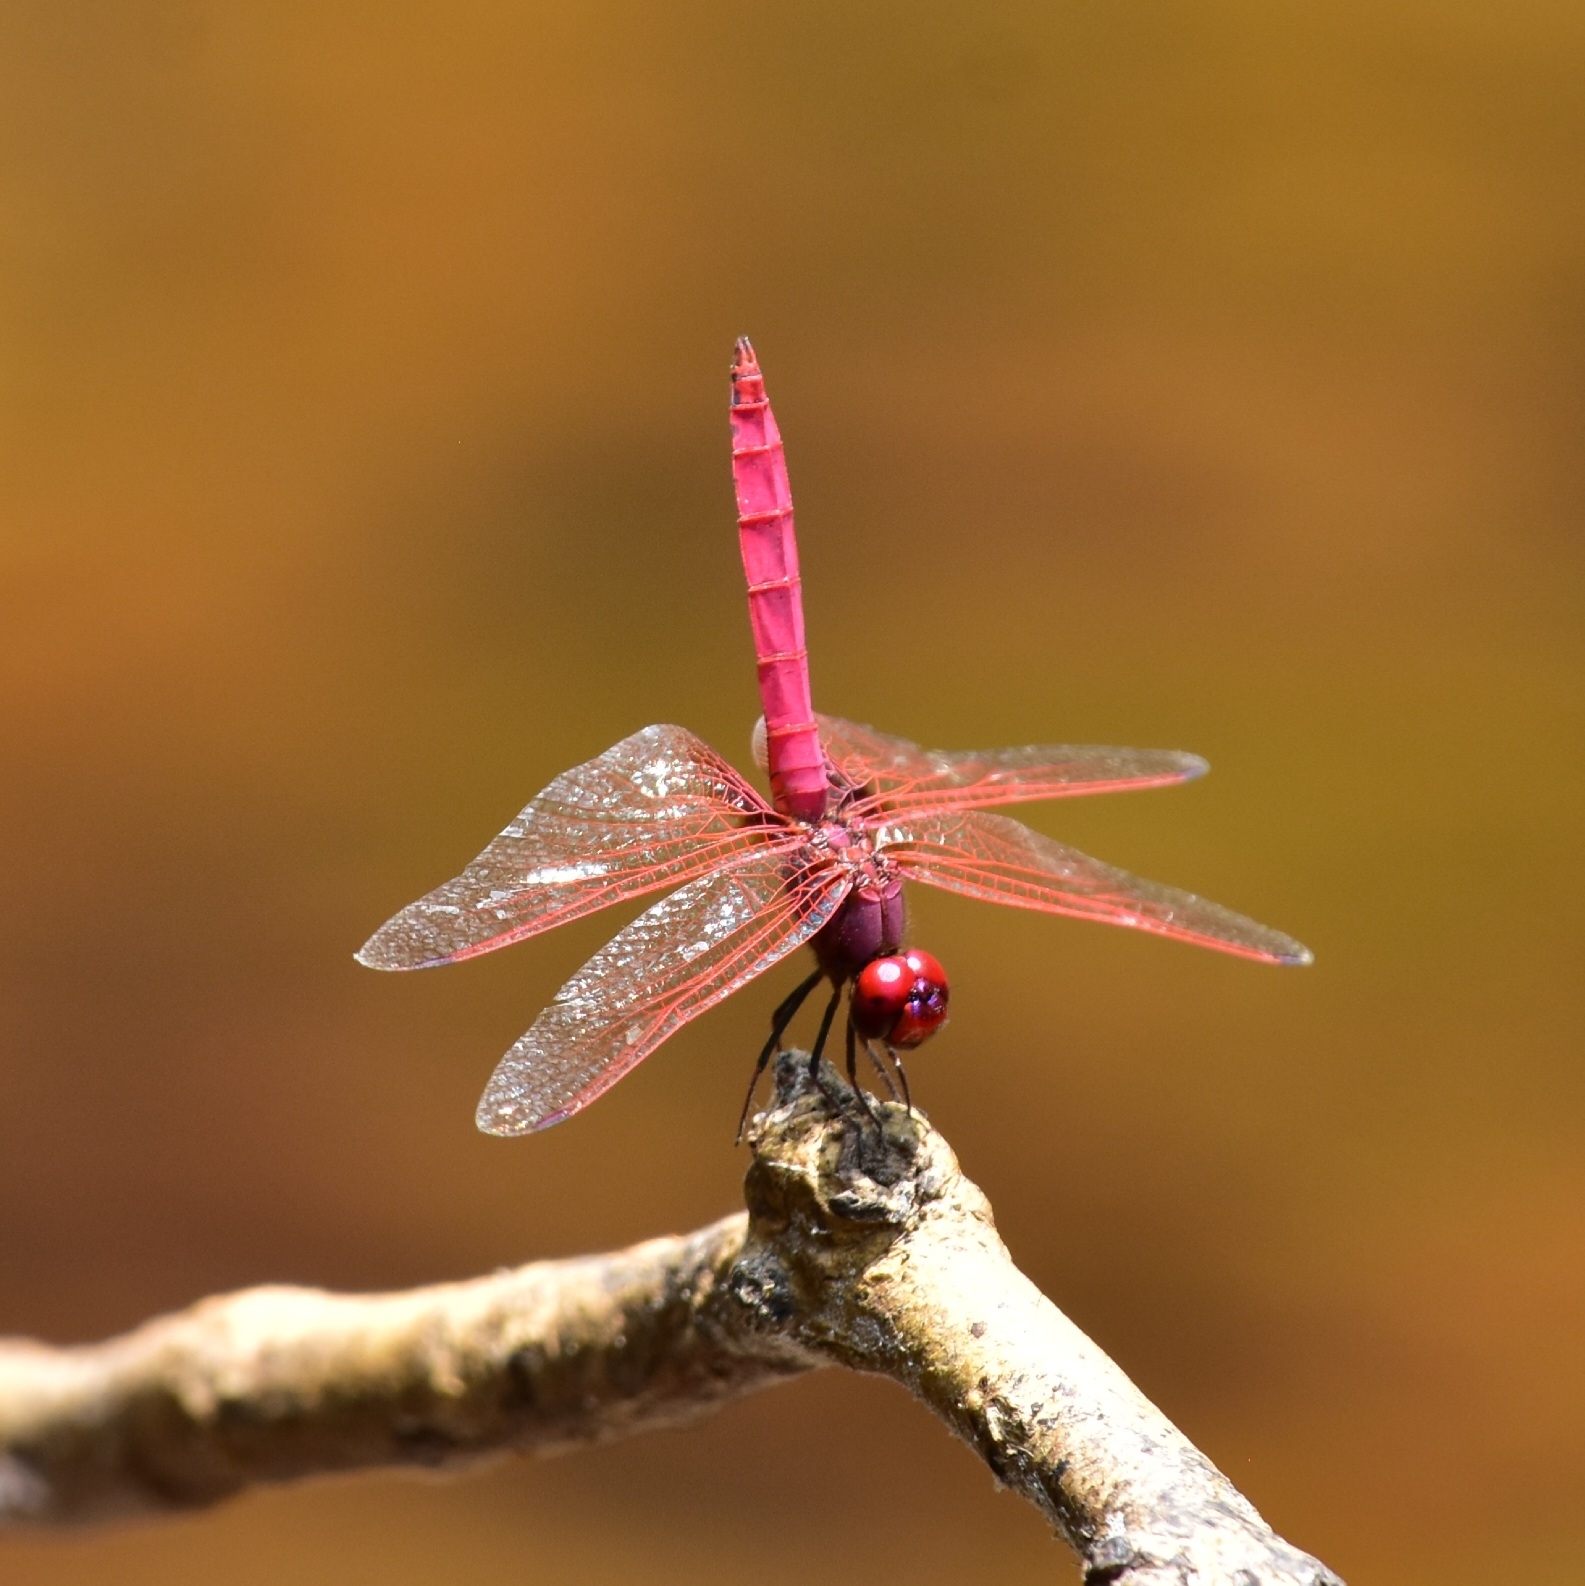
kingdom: Animalia
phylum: Arthropoda
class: Insecta
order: Odonata
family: Libellulidae
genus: Trithemis
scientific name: Trithemis aurora
